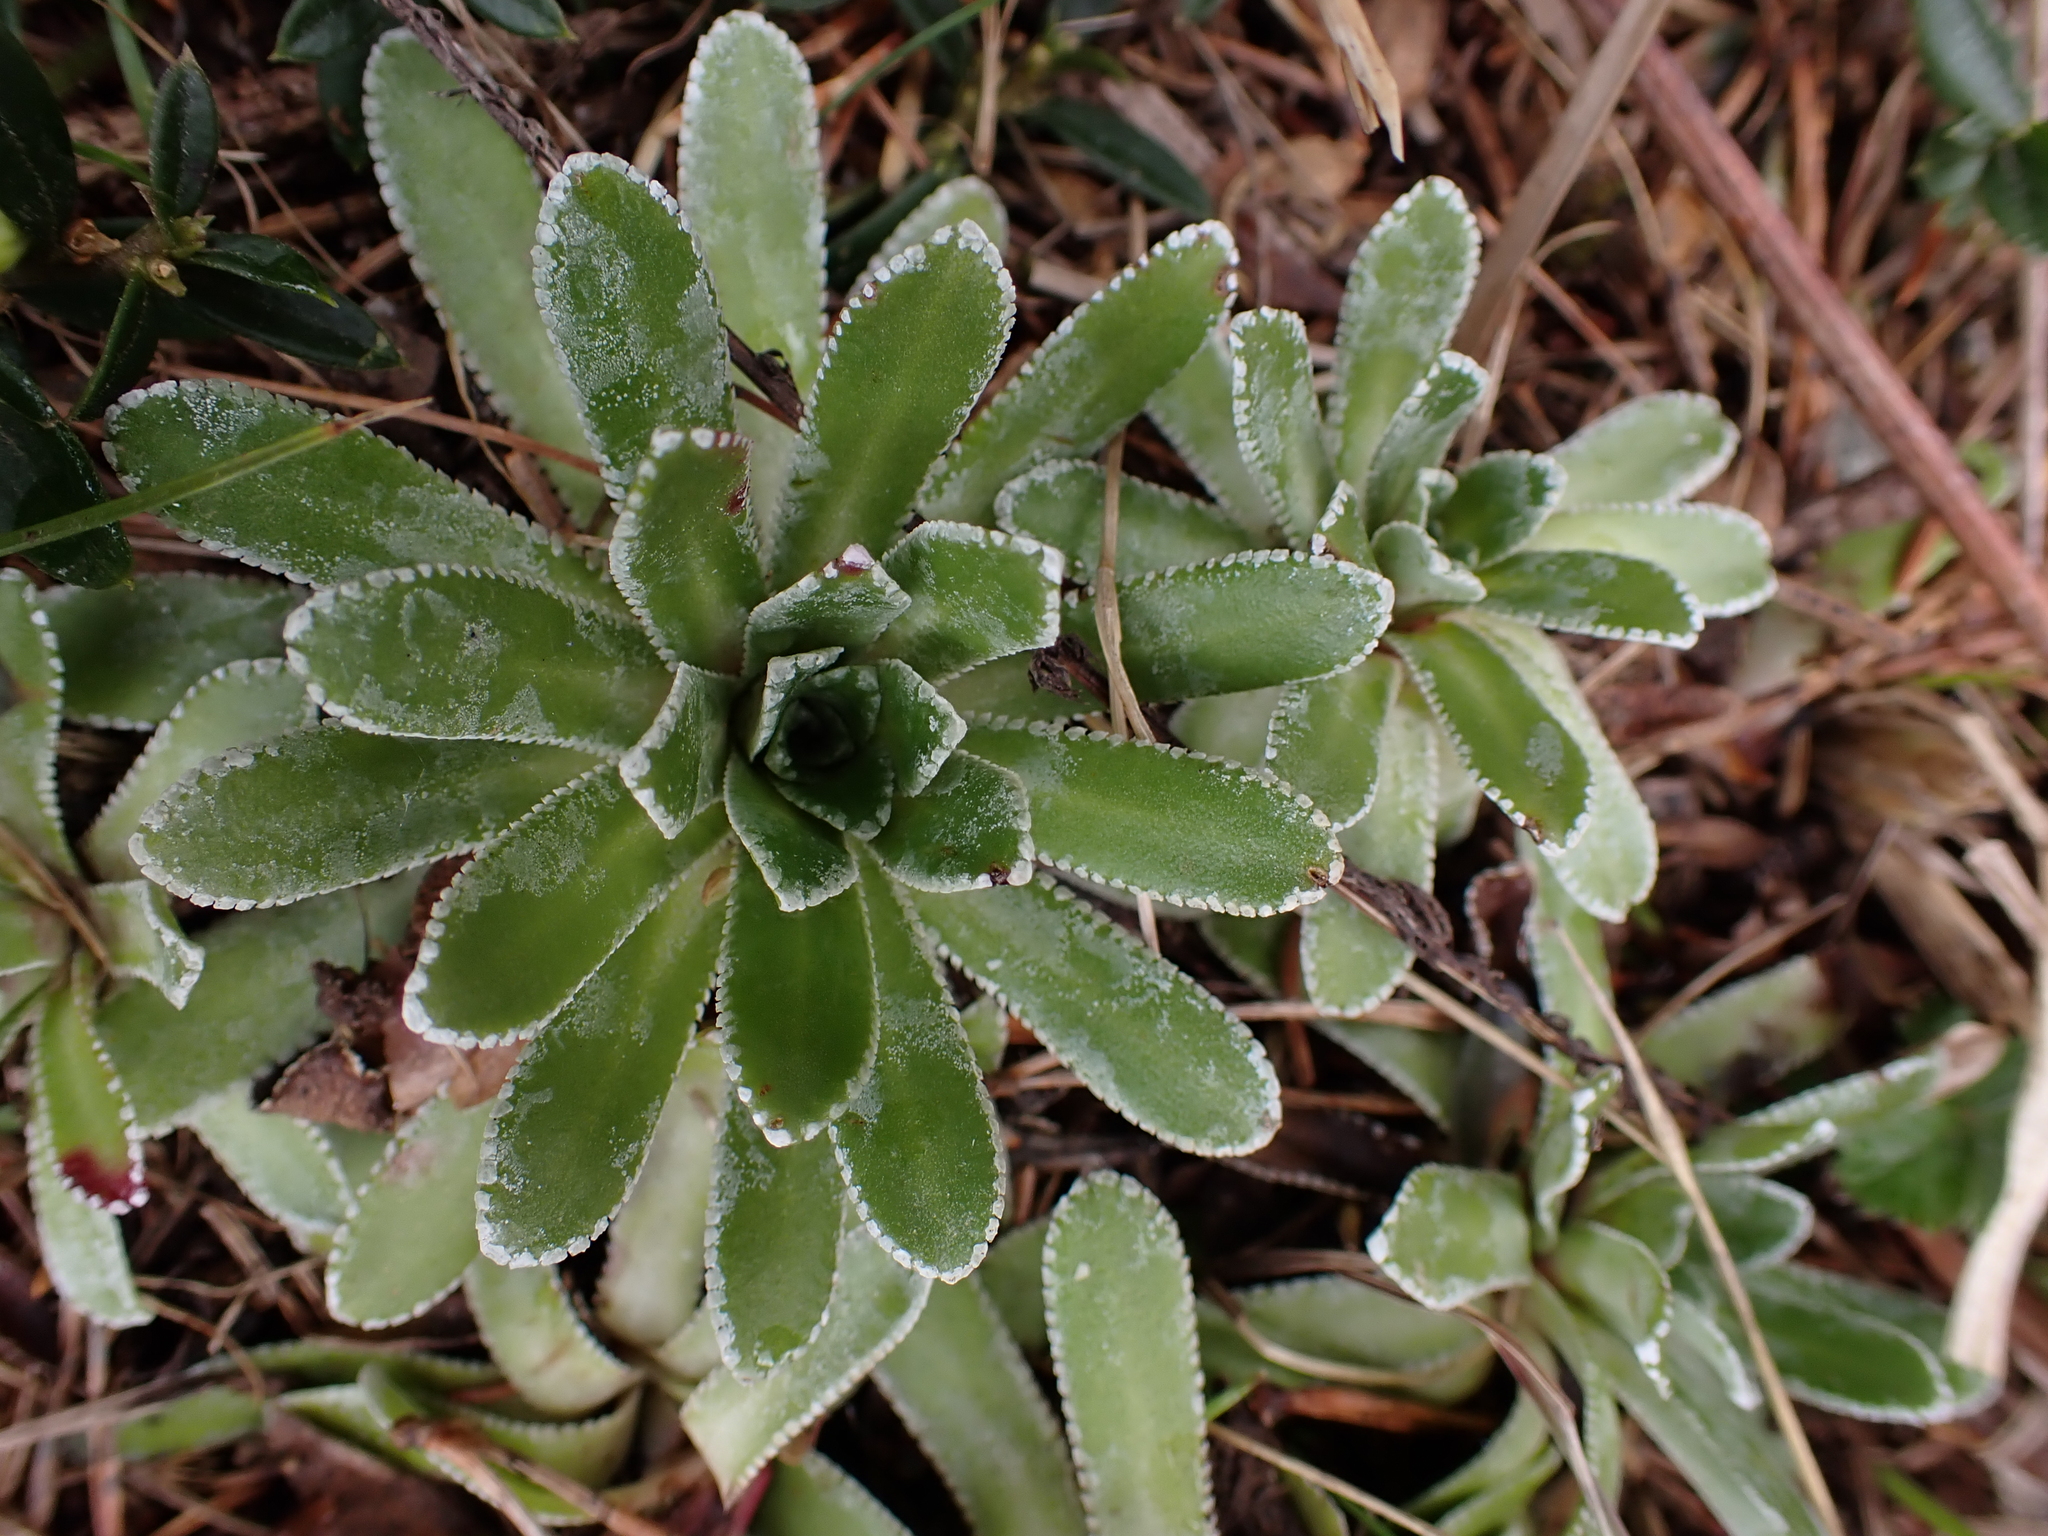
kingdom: Plantae
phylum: Tracheophyta
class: Magnoliopsida
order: Saxifragales
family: Saxifragaceae
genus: Saxifraga
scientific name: Saxifraga paniculata
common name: Livelong saxifrage
